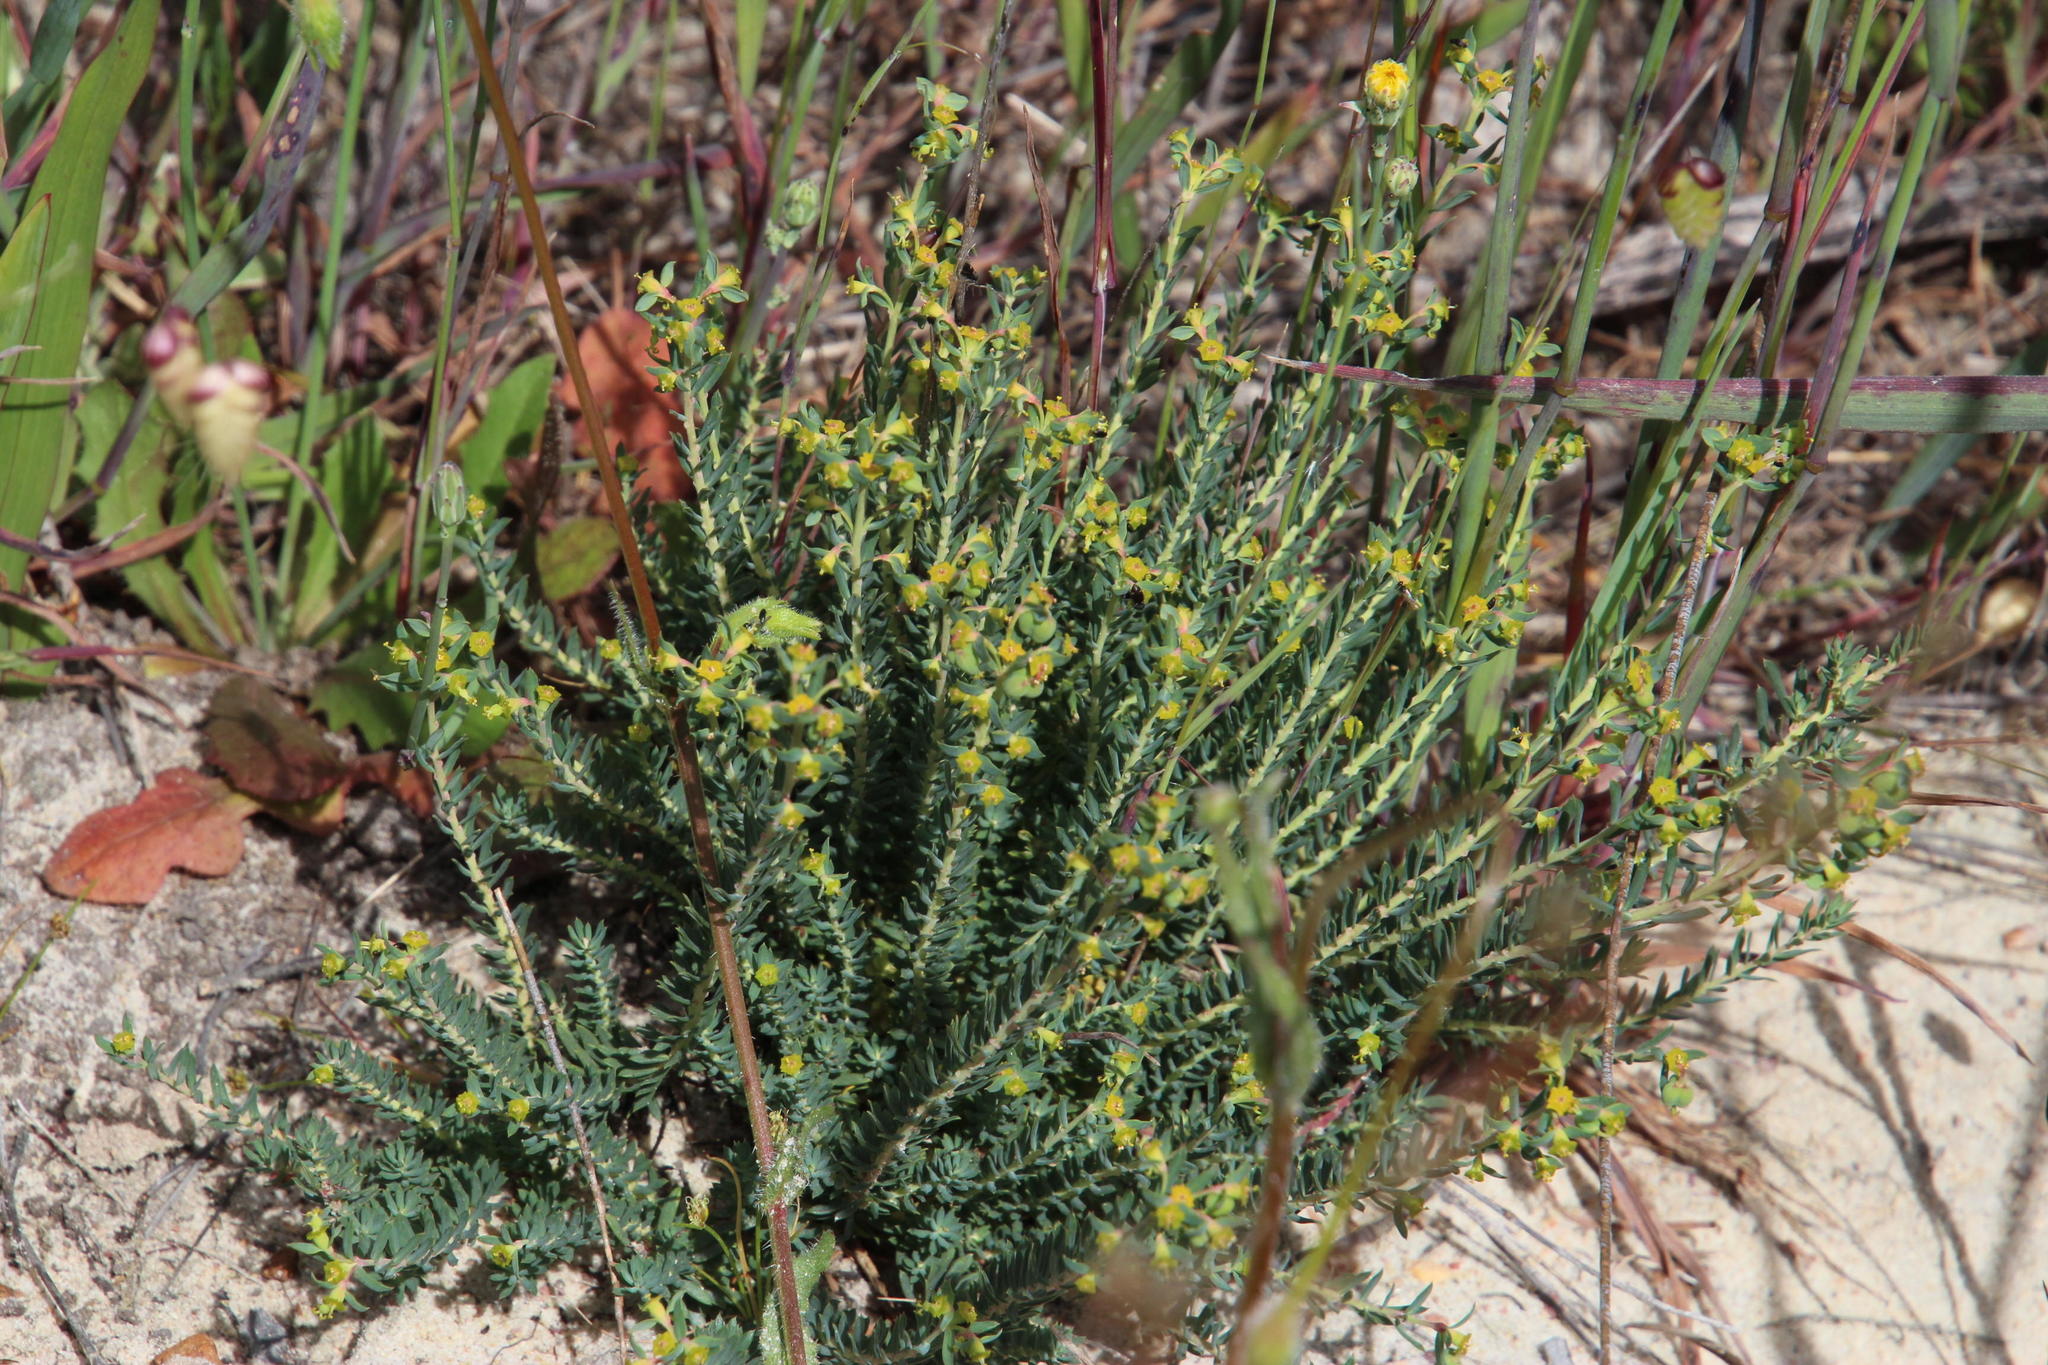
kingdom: Plantae
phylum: Tracheophyta
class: Magnoliopsida
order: Malpighiales
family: Euphorbiaceae
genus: Euphorbia
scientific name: Euphorbia genistoides
